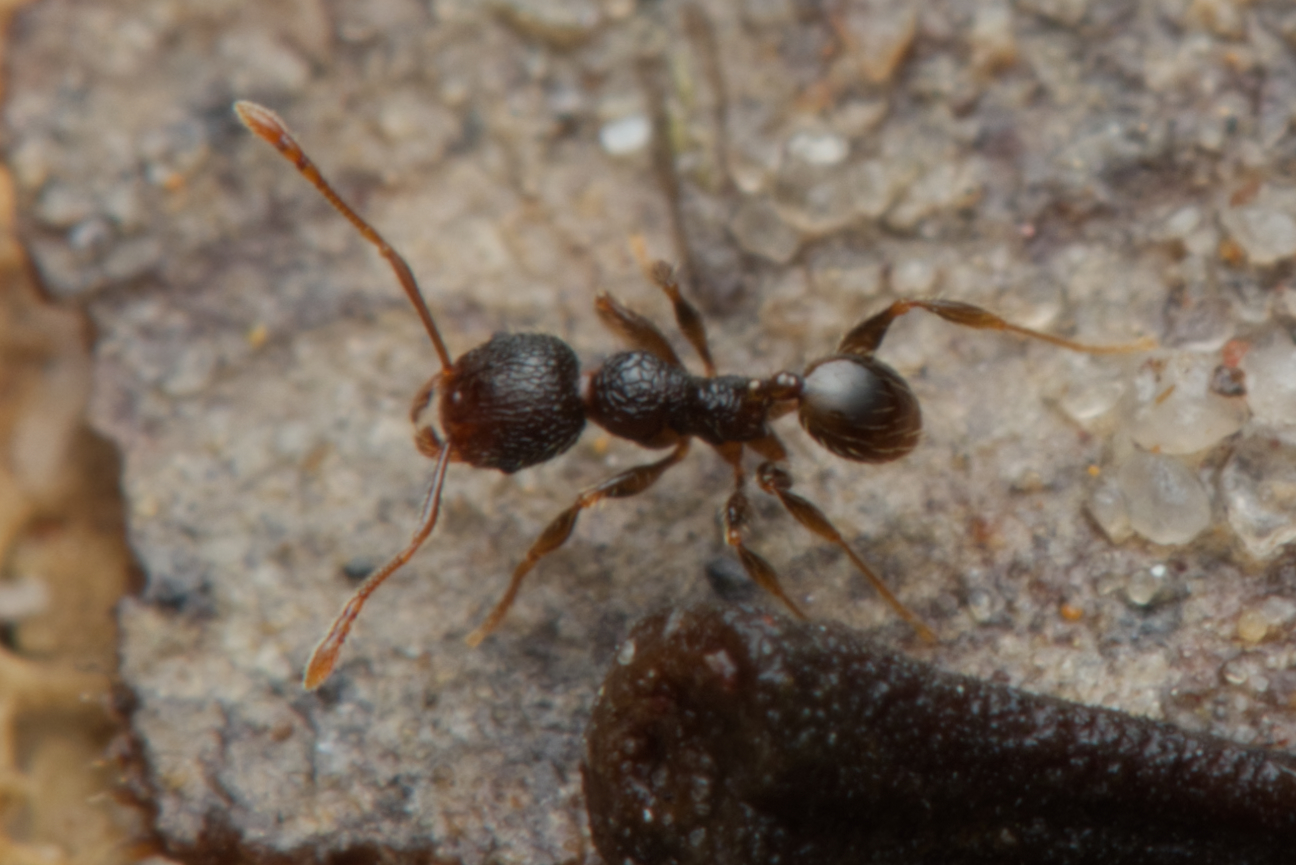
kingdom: Animalia
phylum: Arthropoda
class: Insecta
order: Hymenoptera
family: Formicidae
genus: Pheidole
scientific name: Pheidole anthracina
